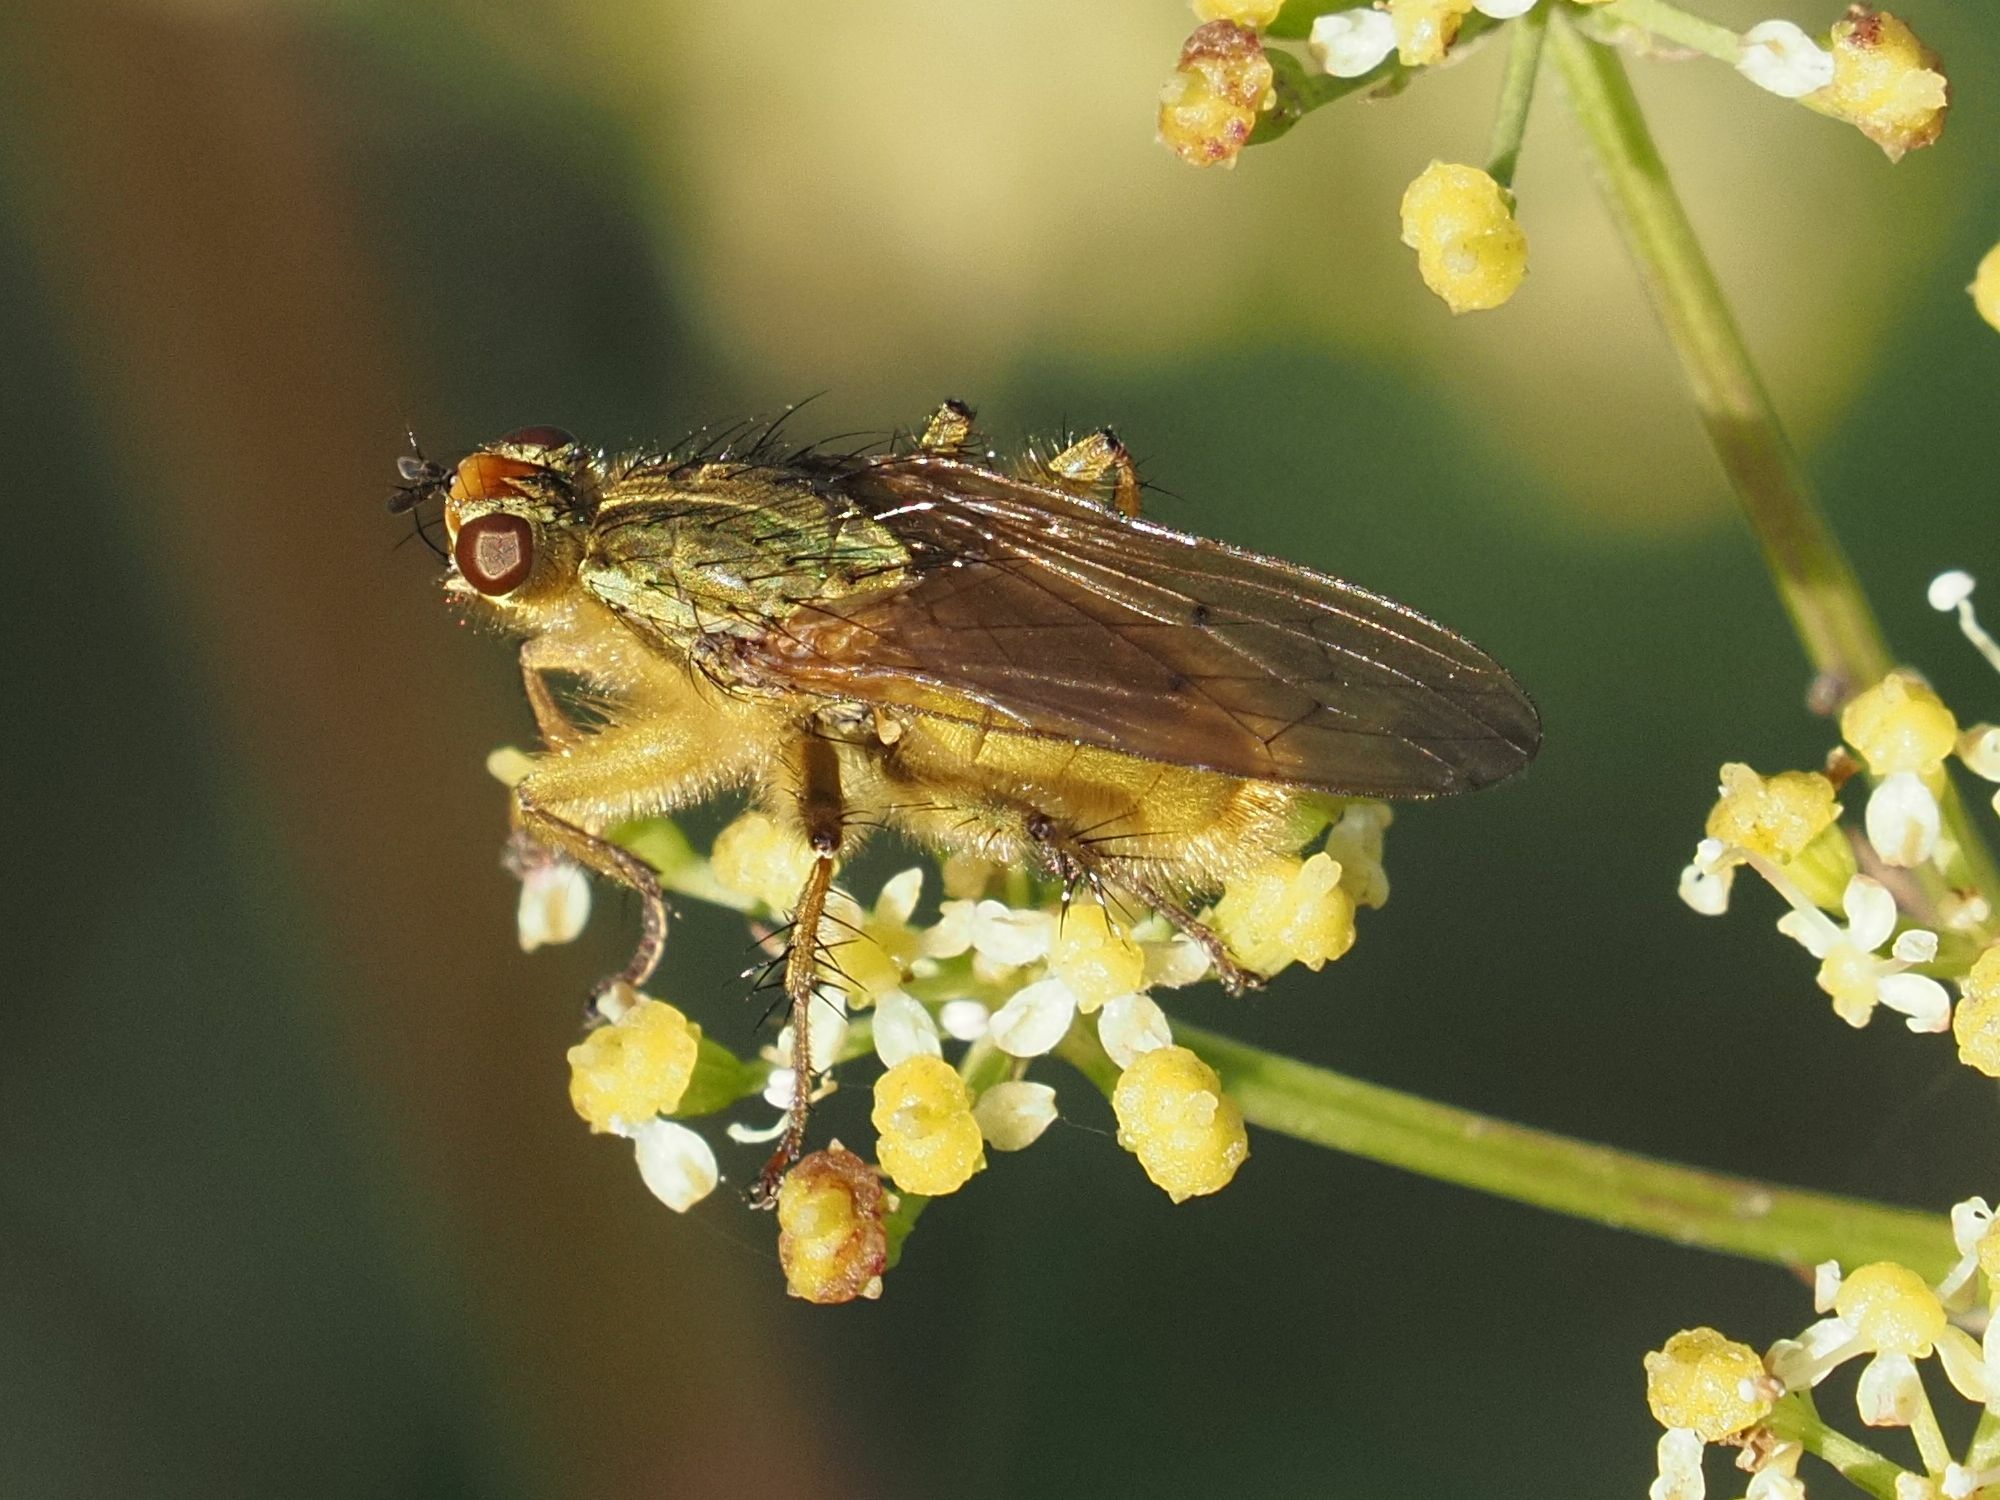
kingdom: Animalia
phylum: Arthropoda
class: Insecta
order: Diptera
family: Scathophagidae
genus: Scathophaga
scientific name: Scathophaga stercoraria
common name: Yellow dung fly
